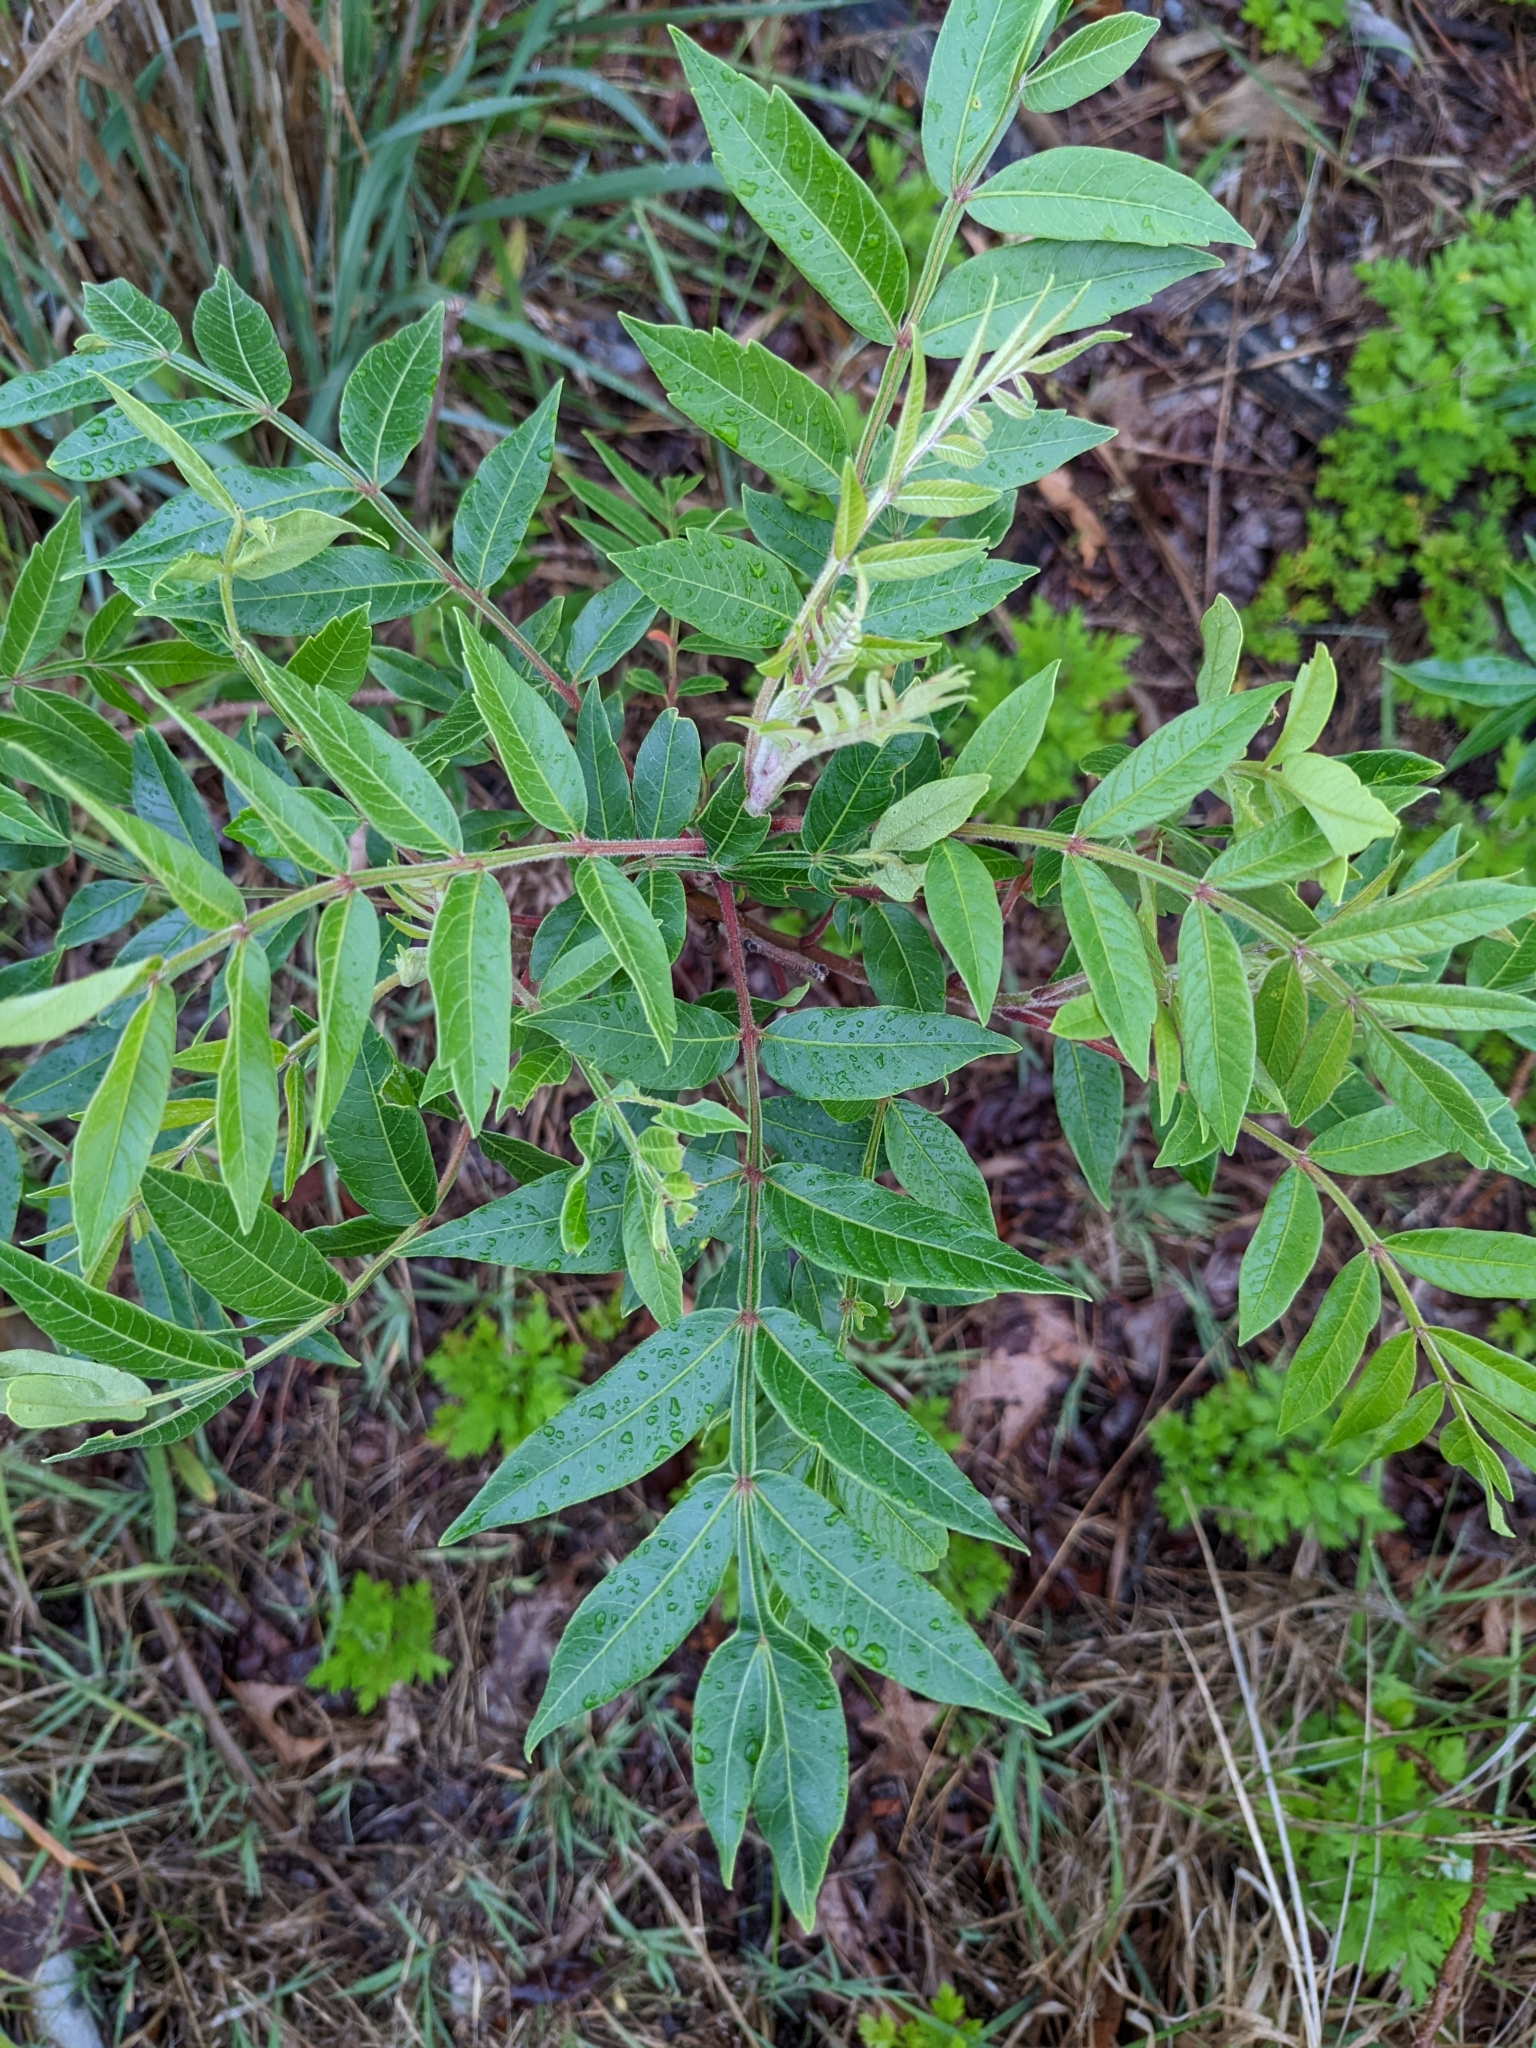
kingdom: Plantae
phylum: Tracheophyta
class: Magnoliopsida
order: Sapindales
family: Anacardiaceae
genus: Rhus
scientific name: Rhus copallina
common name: Shining sumac
